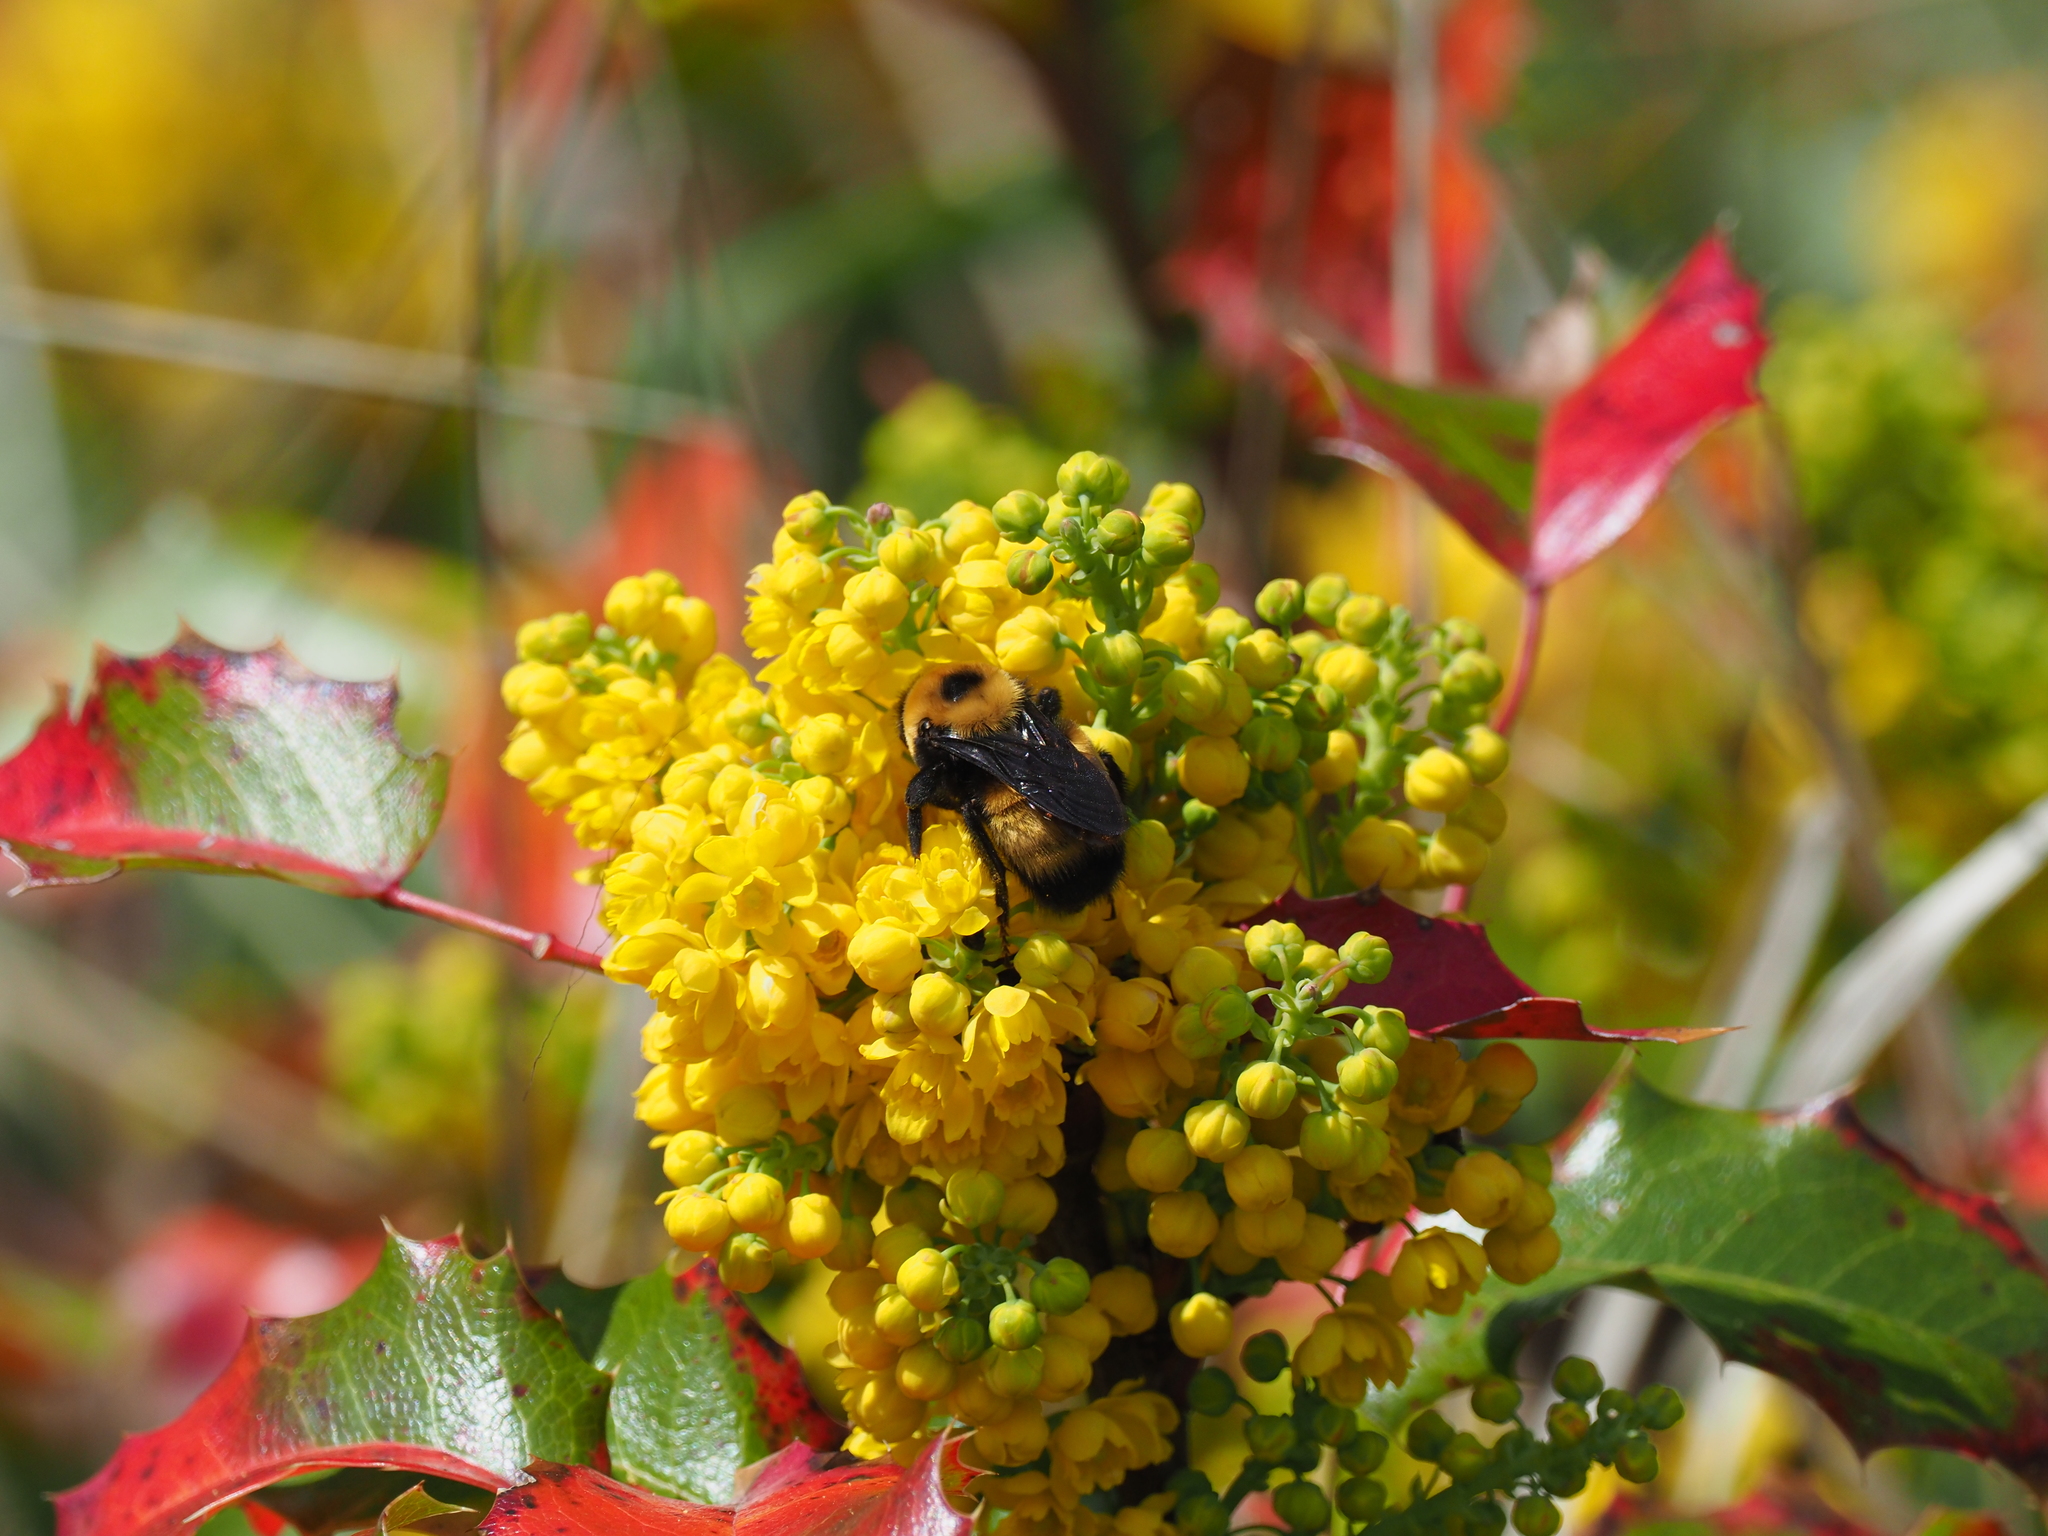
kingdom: Plantae
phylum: Tracheophyta
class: Magnoliopsida
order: Ranunculales
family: Berberidaceae
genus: Mahonia
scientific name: Mahonia aquifolium
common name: Oregon-grape
